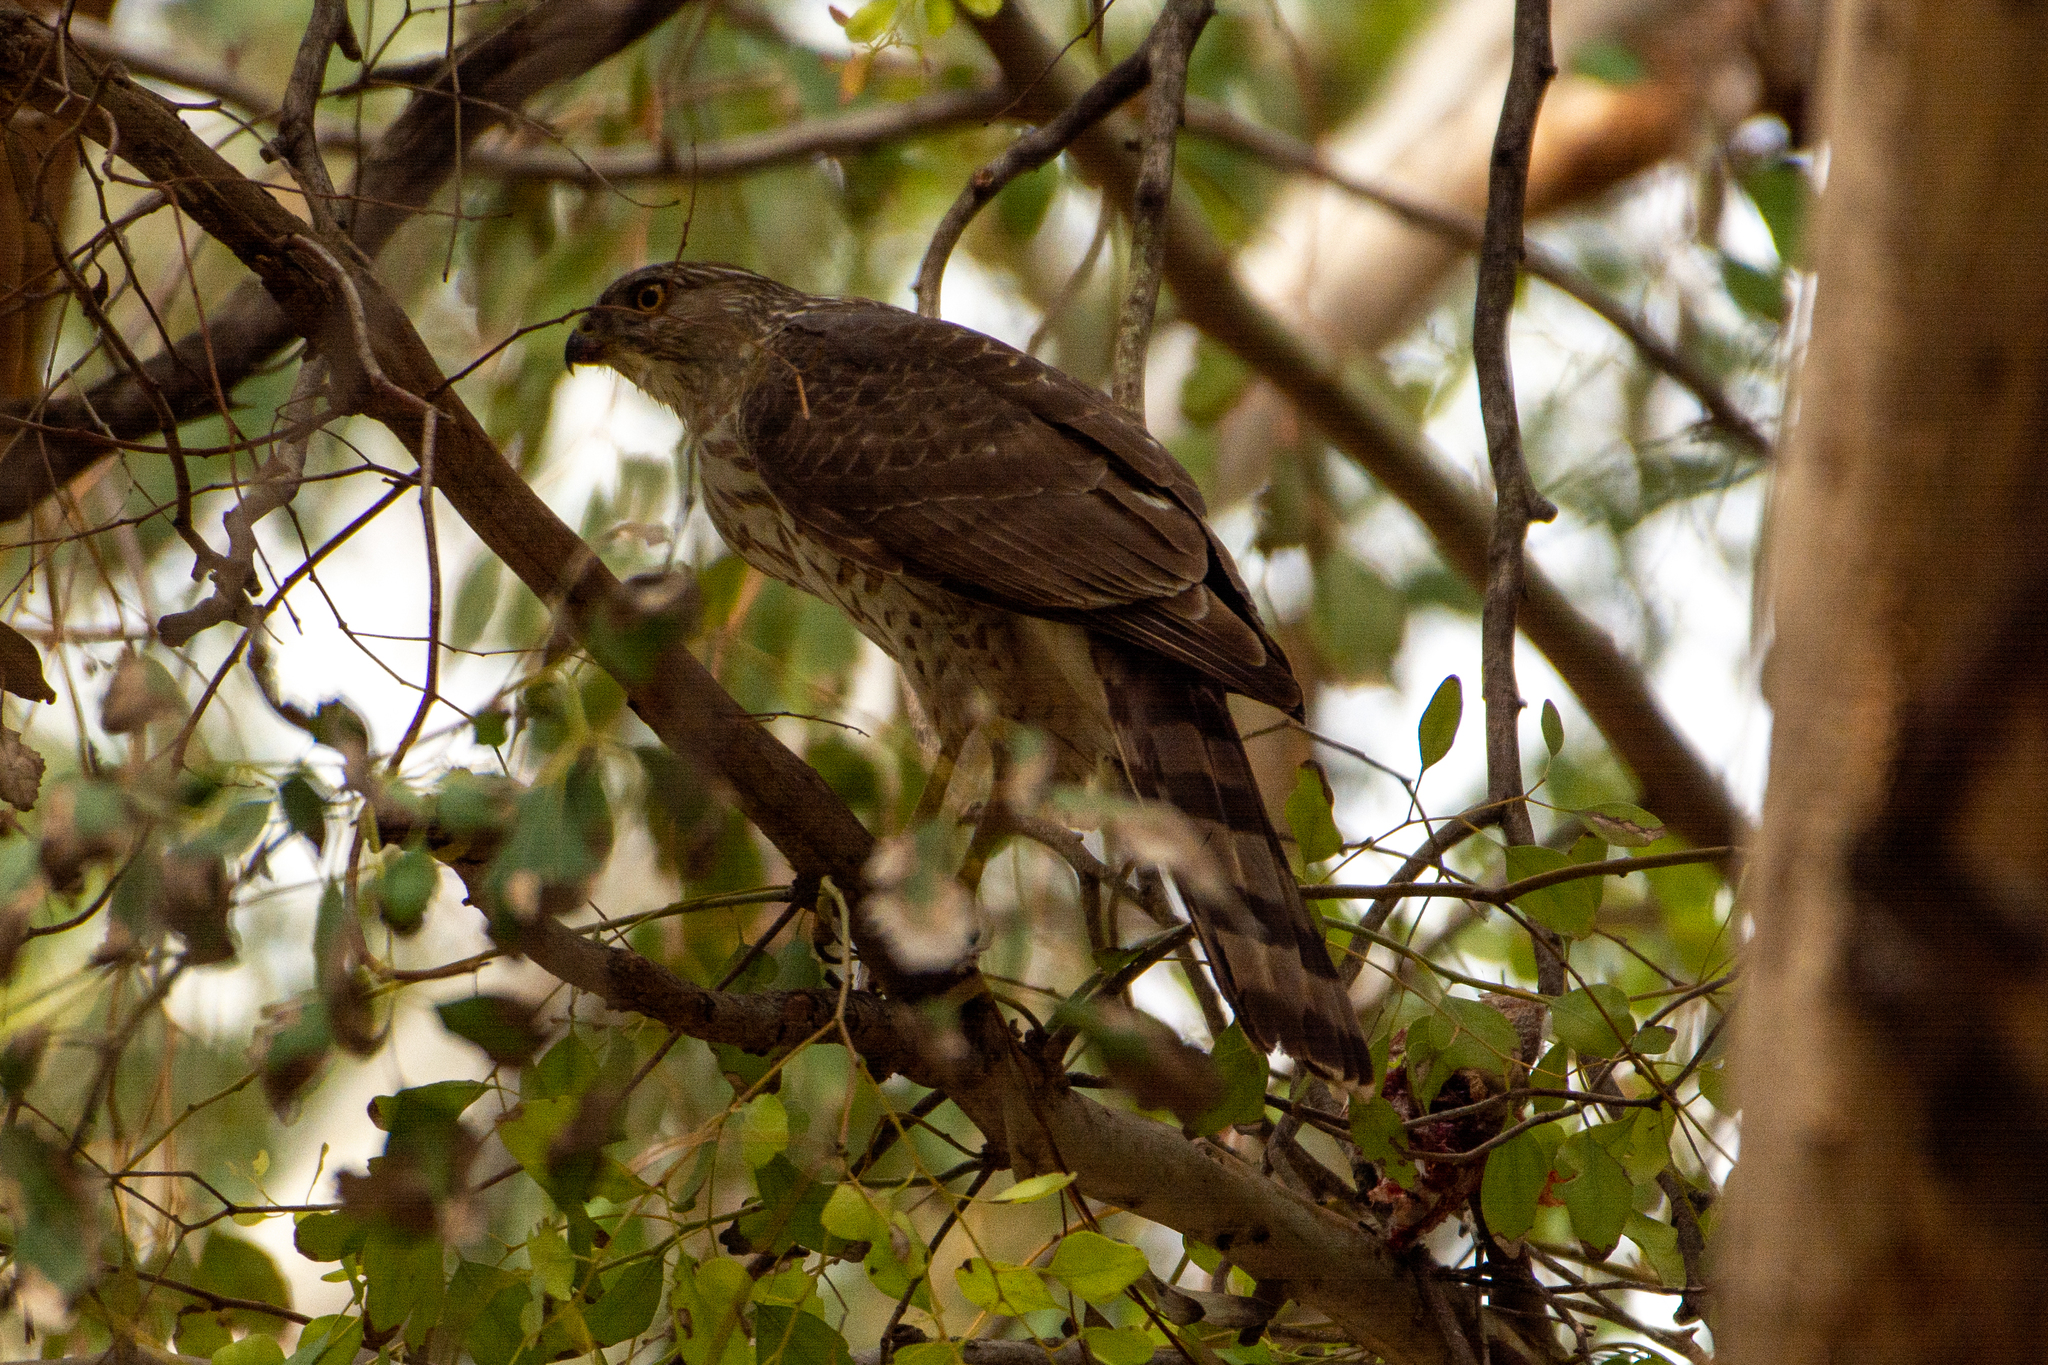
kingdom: Animalia
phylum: Chordata
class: Aves
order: Accipitriformes
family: Accipitridae
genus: Accipiter
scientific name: Accipiter cooperii
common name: Cooper's hawk
